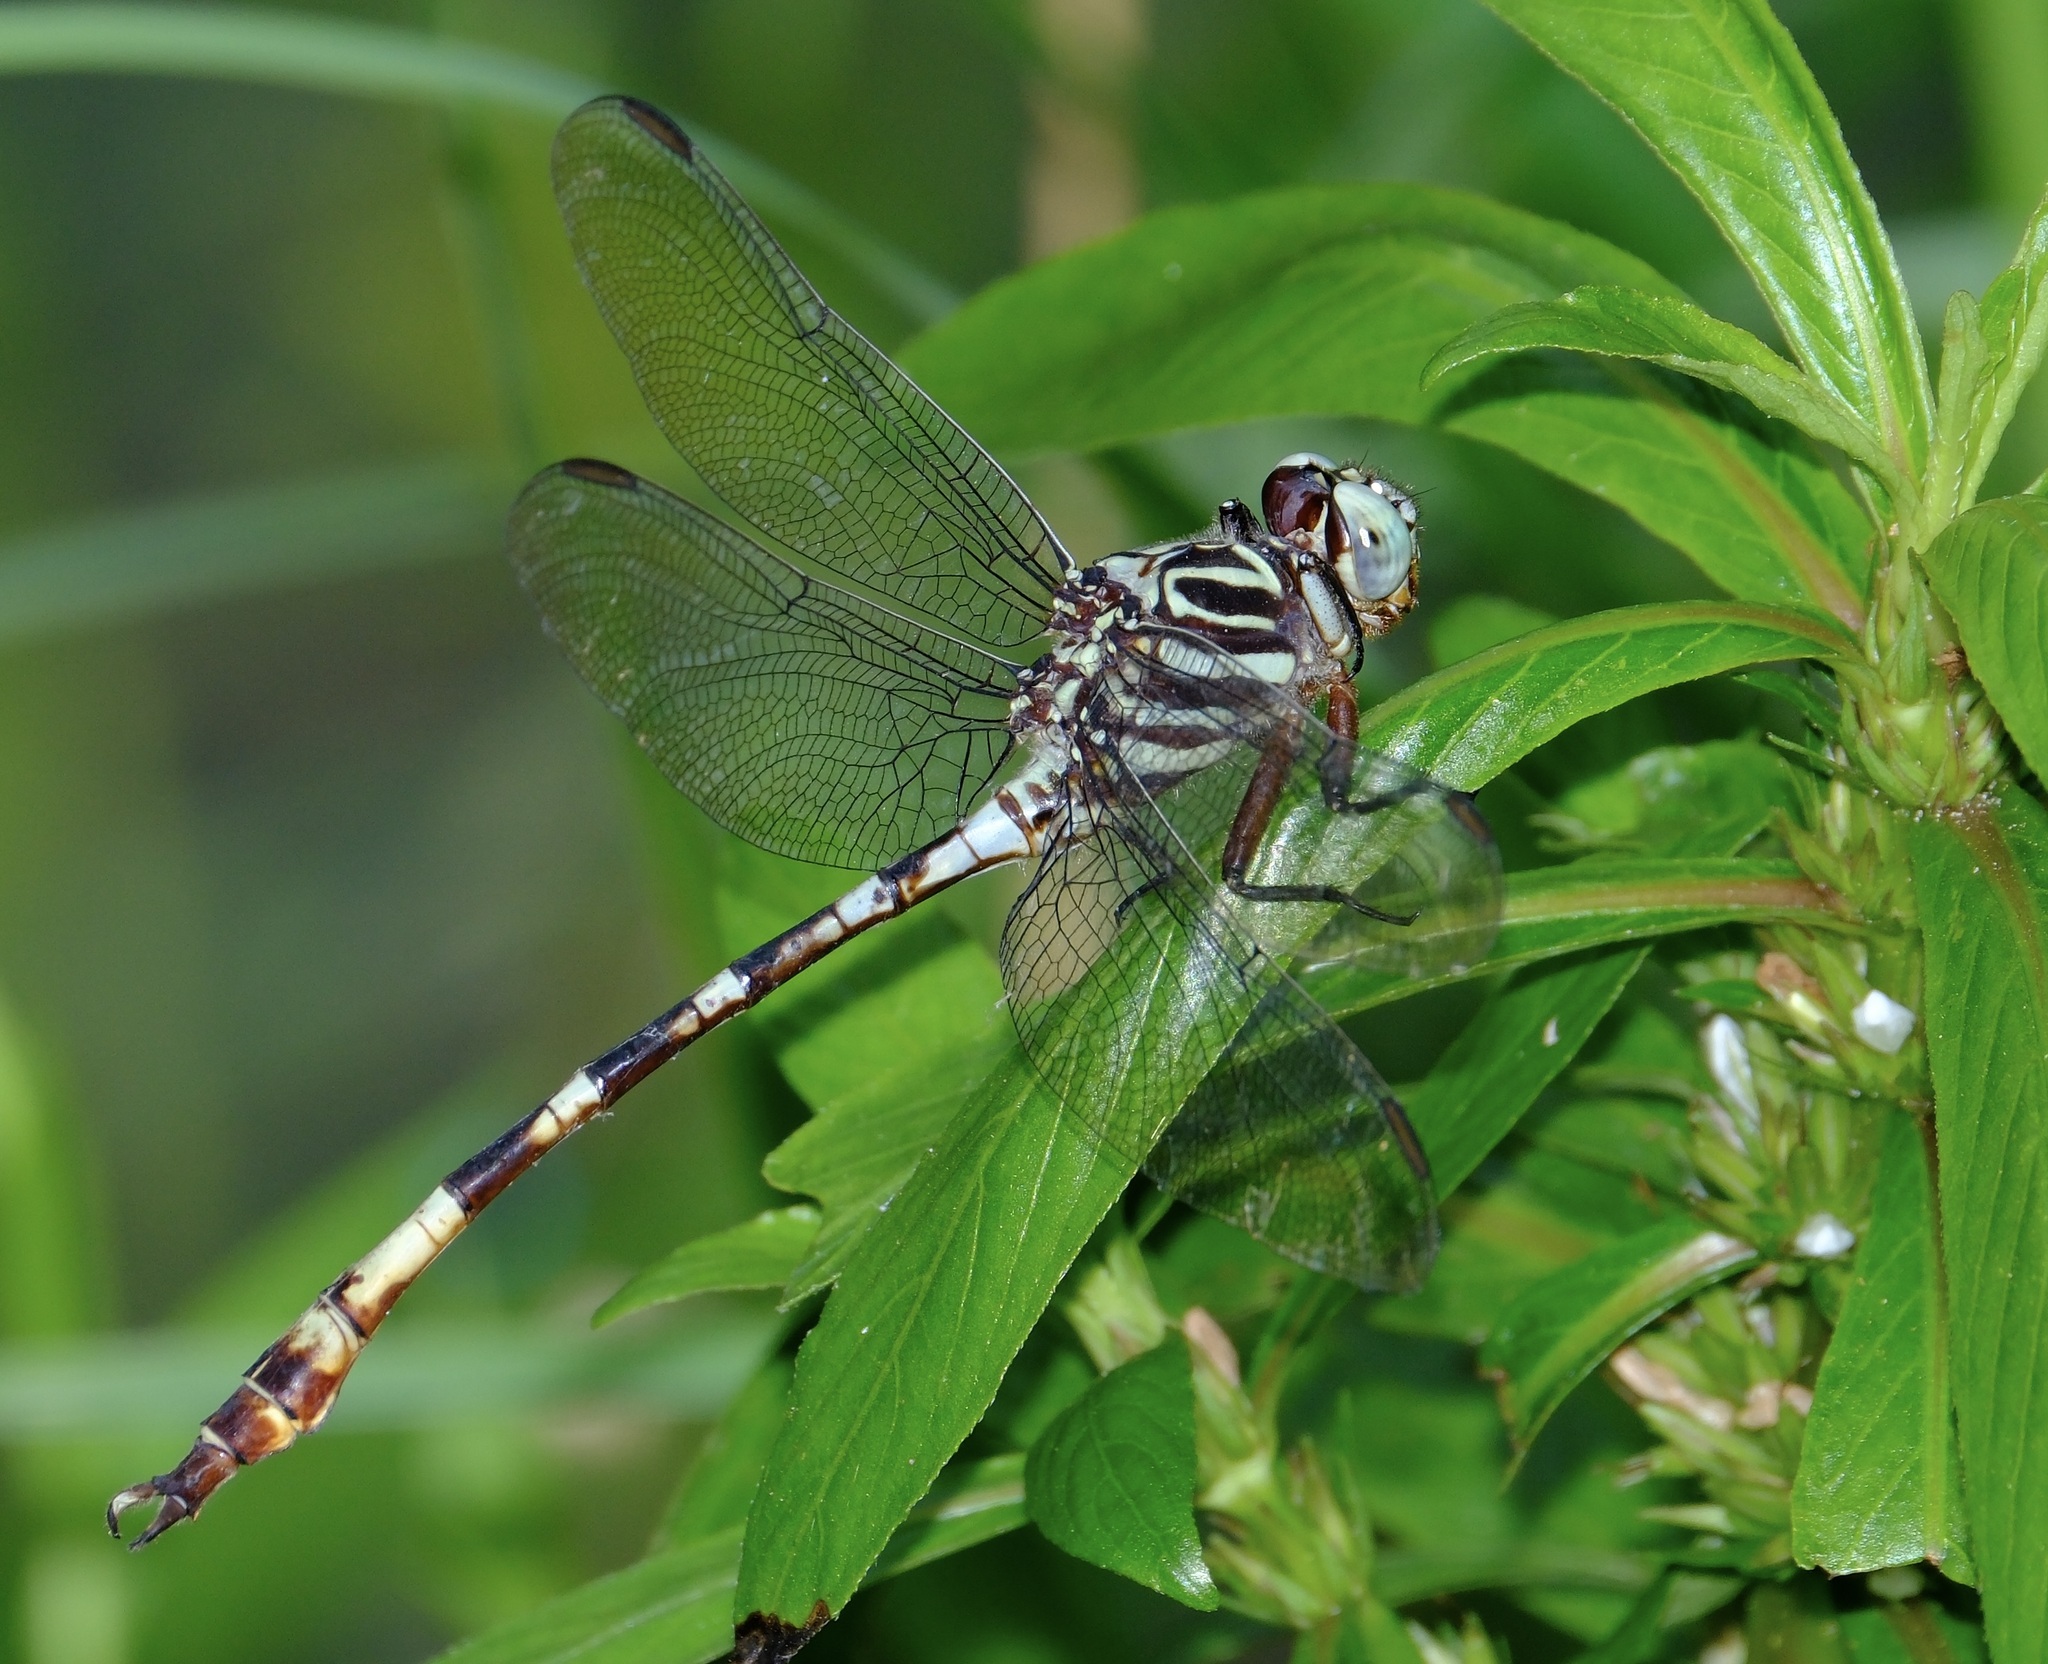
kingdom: Animalia
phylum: Arthropoda
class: Insecta
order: Odonata
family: Gomphidae
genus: Aphylla
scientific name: Aphylla angustifolia
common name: Broad-striped forceptail
